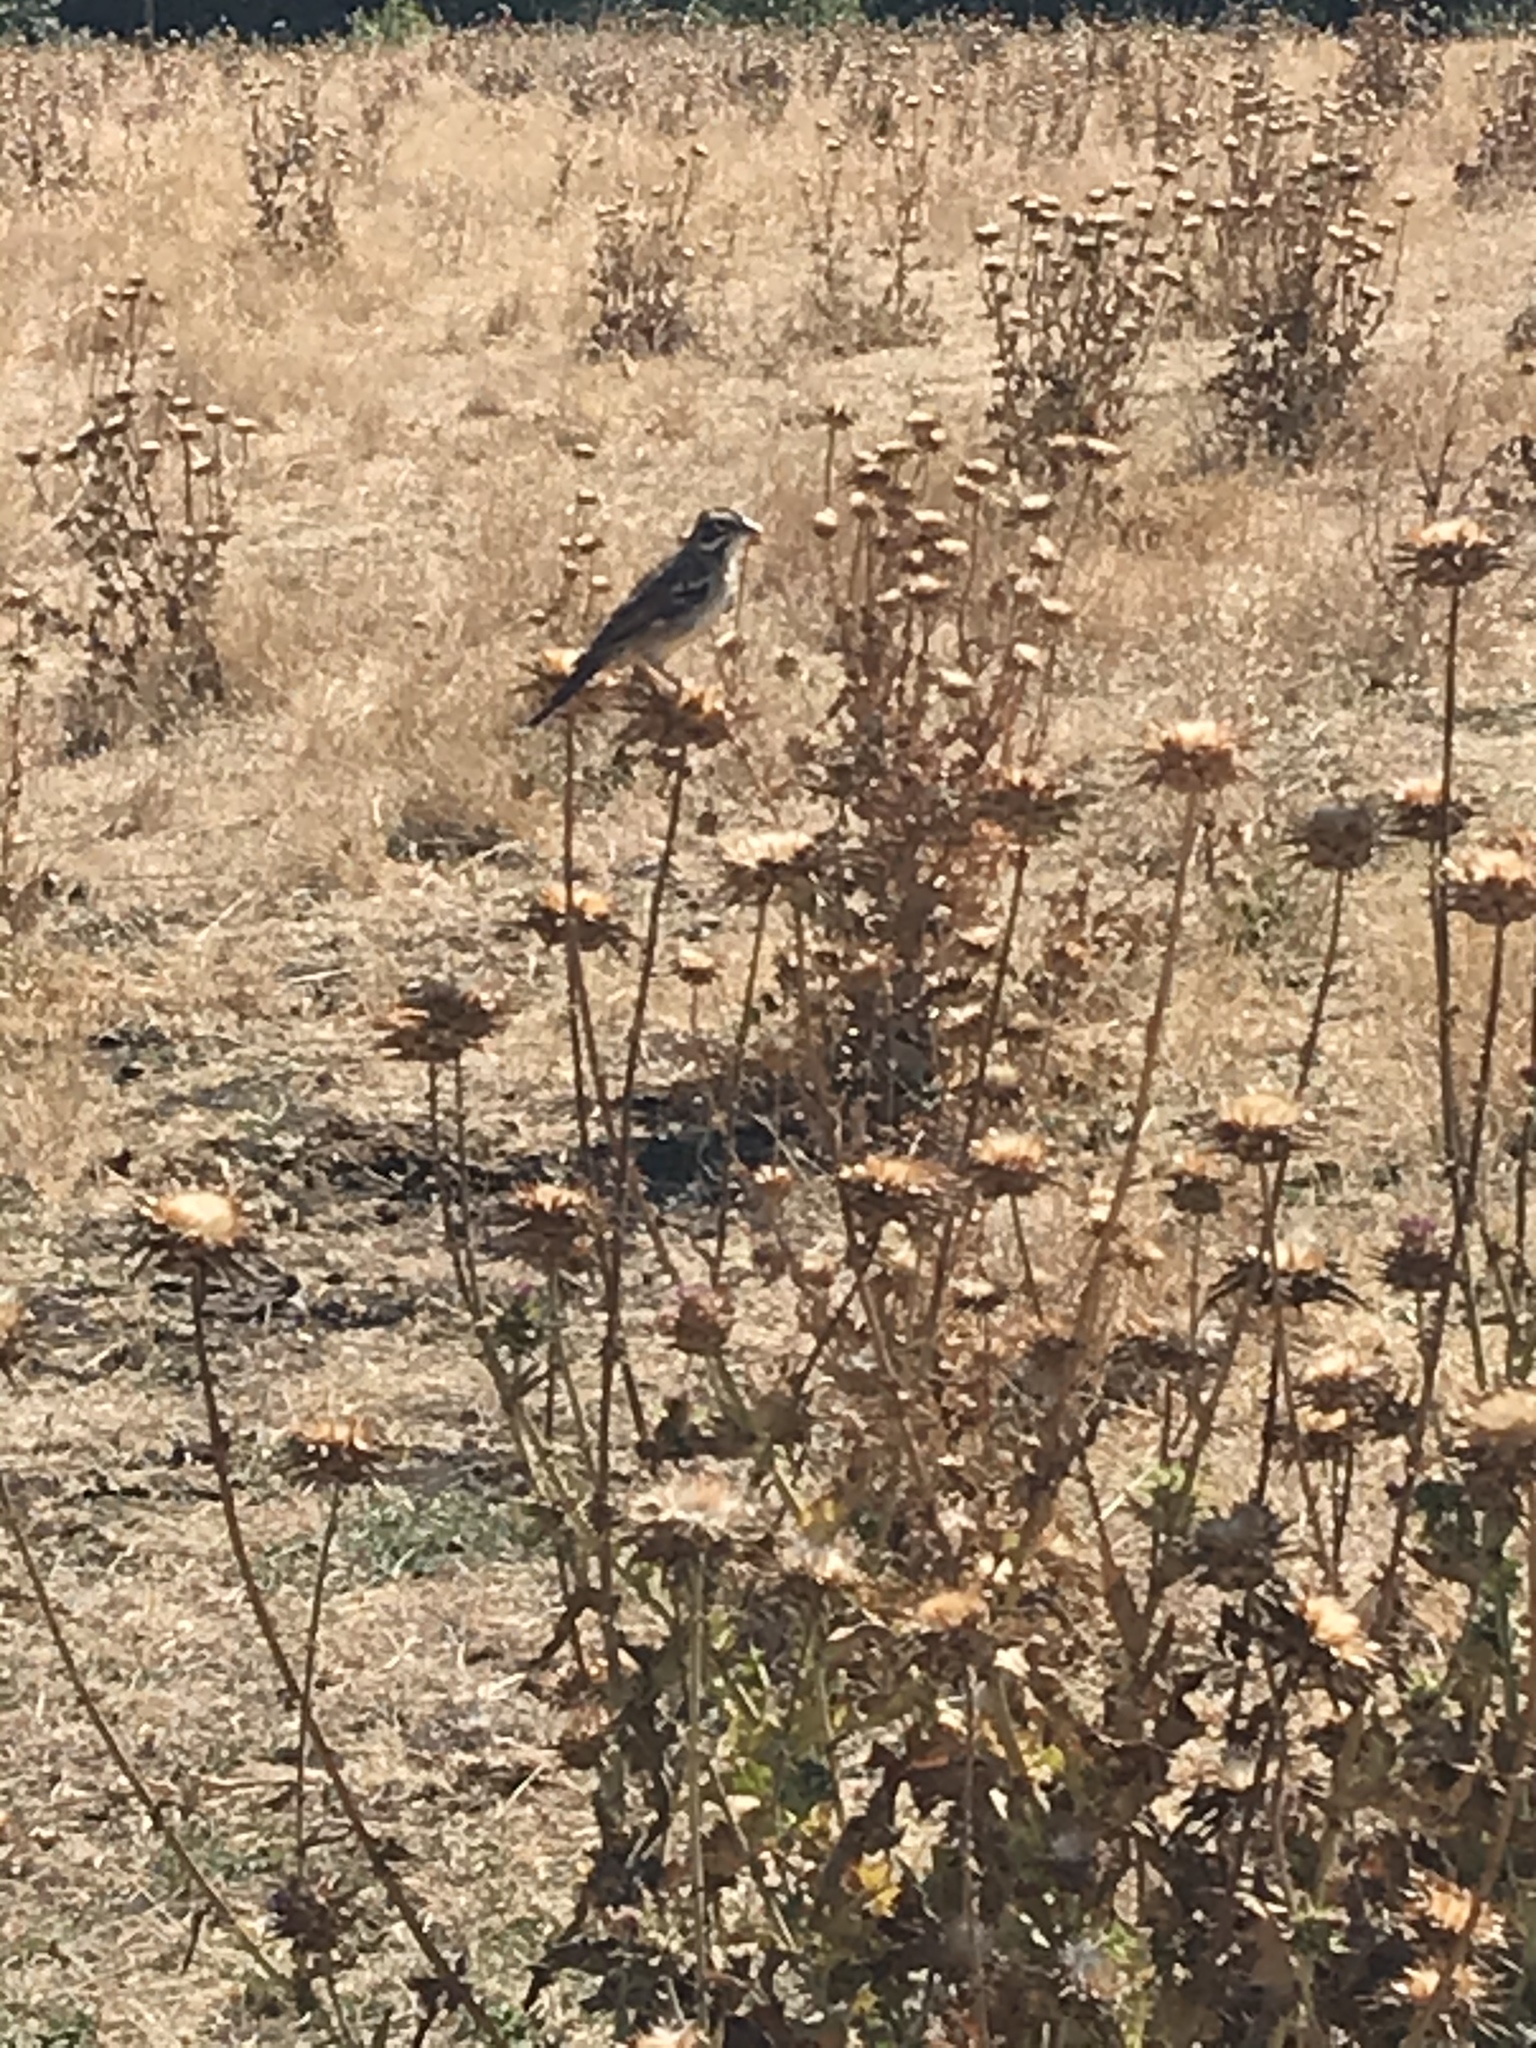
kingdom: Animalia
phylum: Chordata
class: Aves
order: Passeriformes
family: Passerellidae
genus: Chondestes
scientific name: Chondestes grammacus
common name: Lark sparrow
